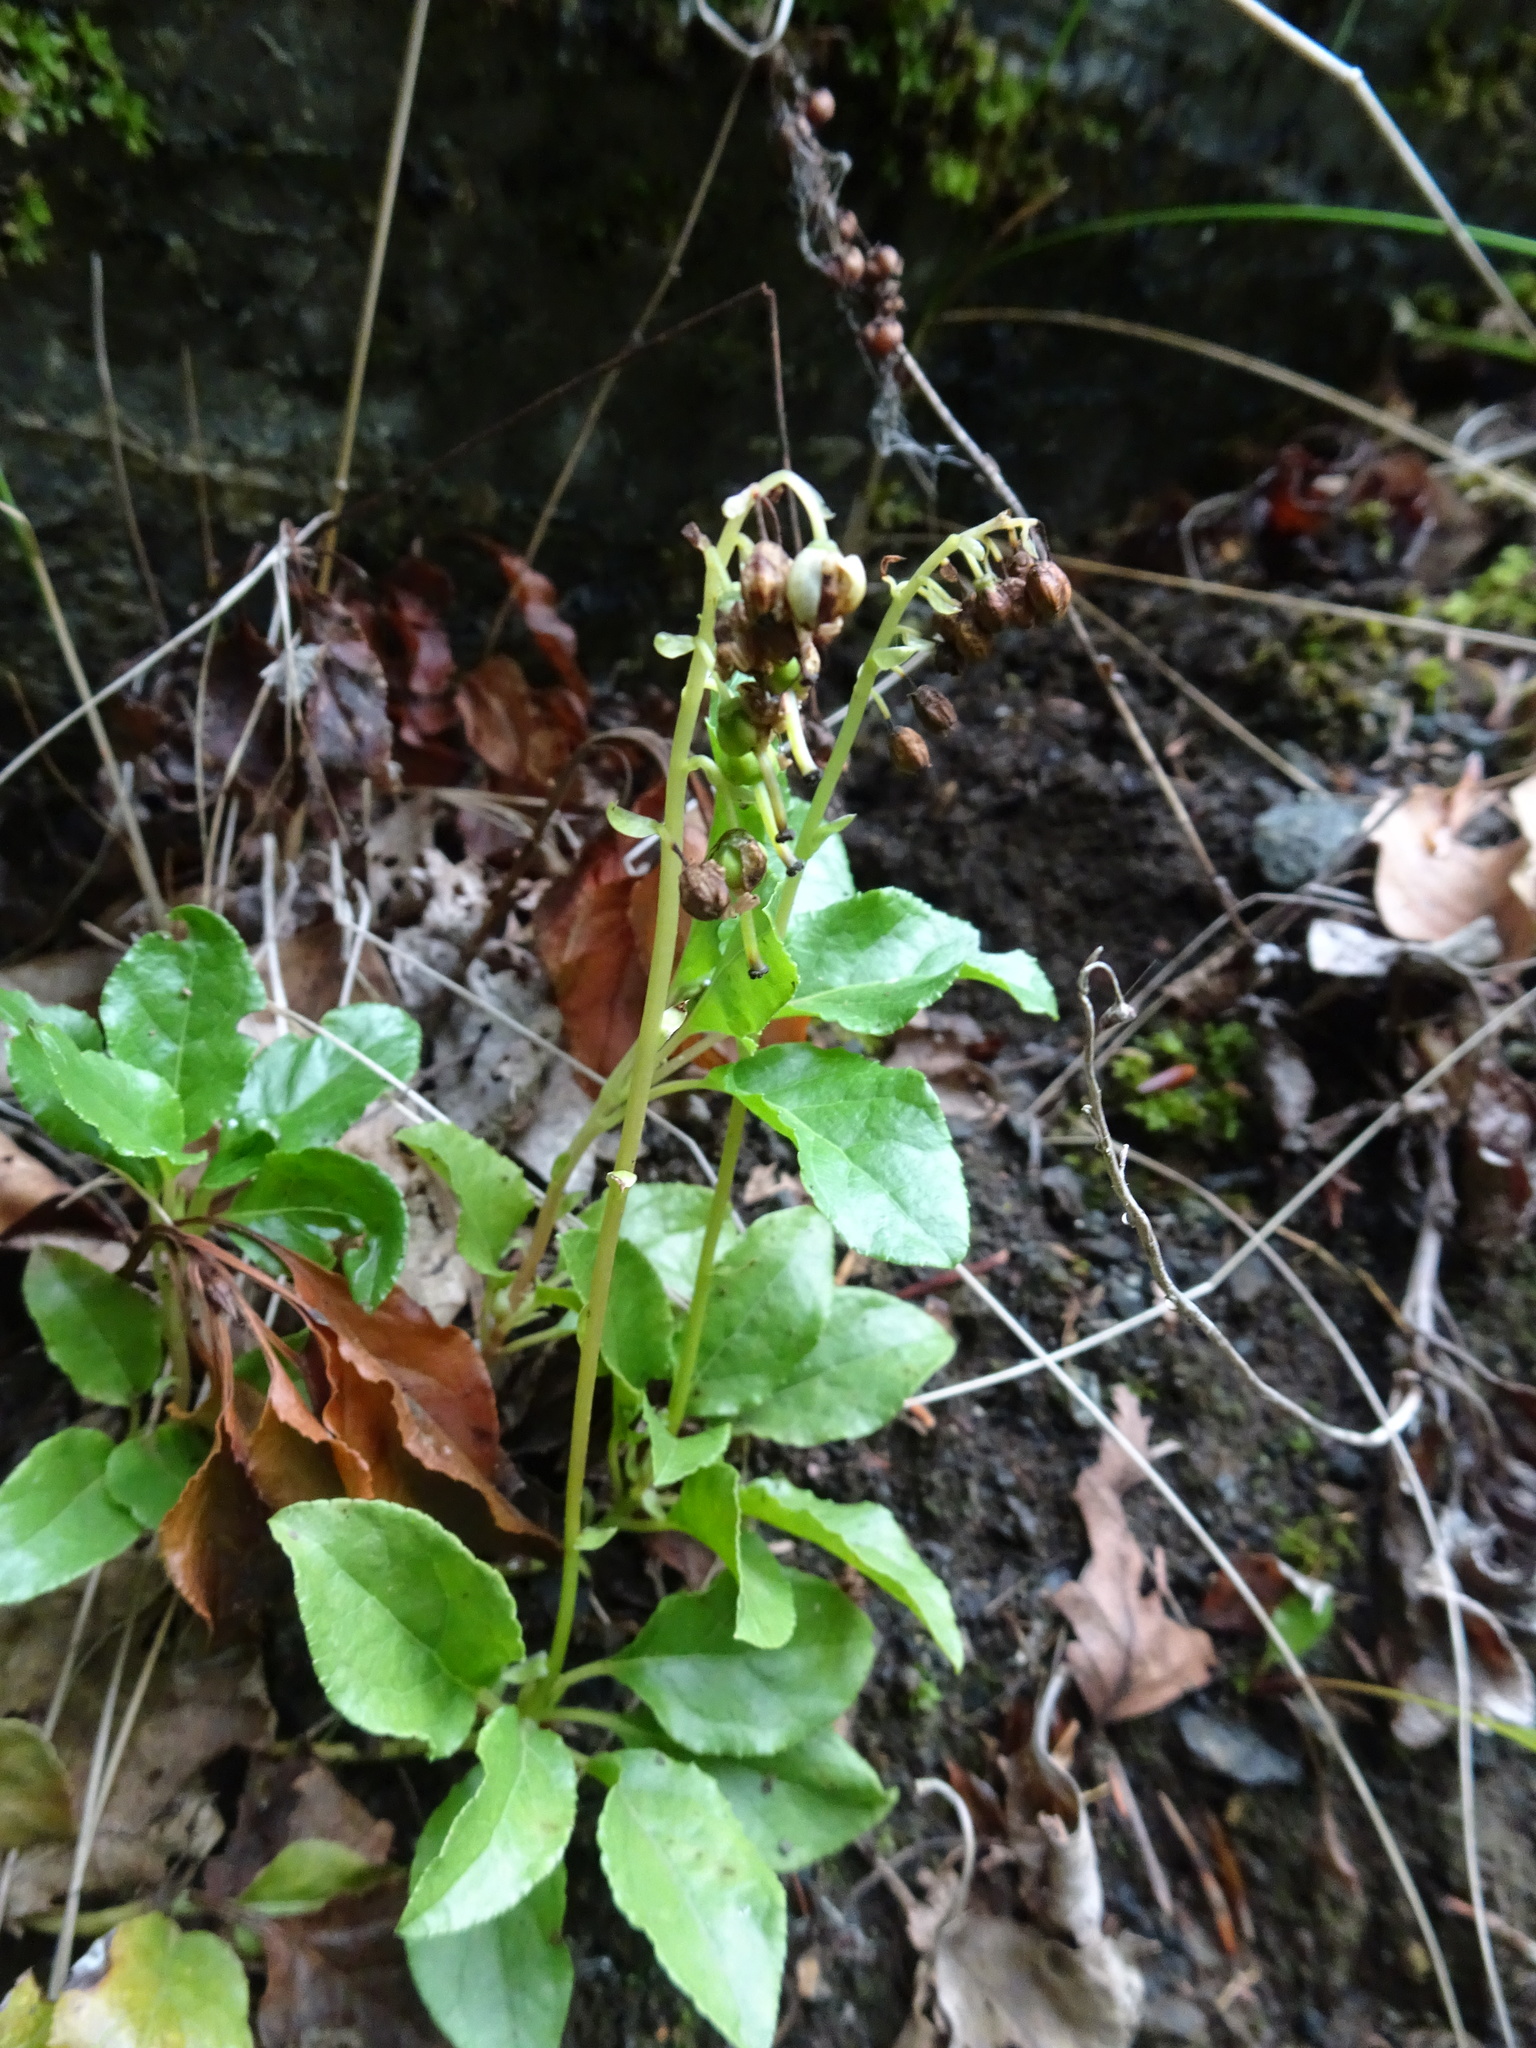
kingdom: Plantae
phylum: Tracheophyta
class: Magnoliopsida
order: Ericales
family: Ericaceae
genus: Orthilia
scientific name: Orthilia secunda
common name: One-sided orthilia
